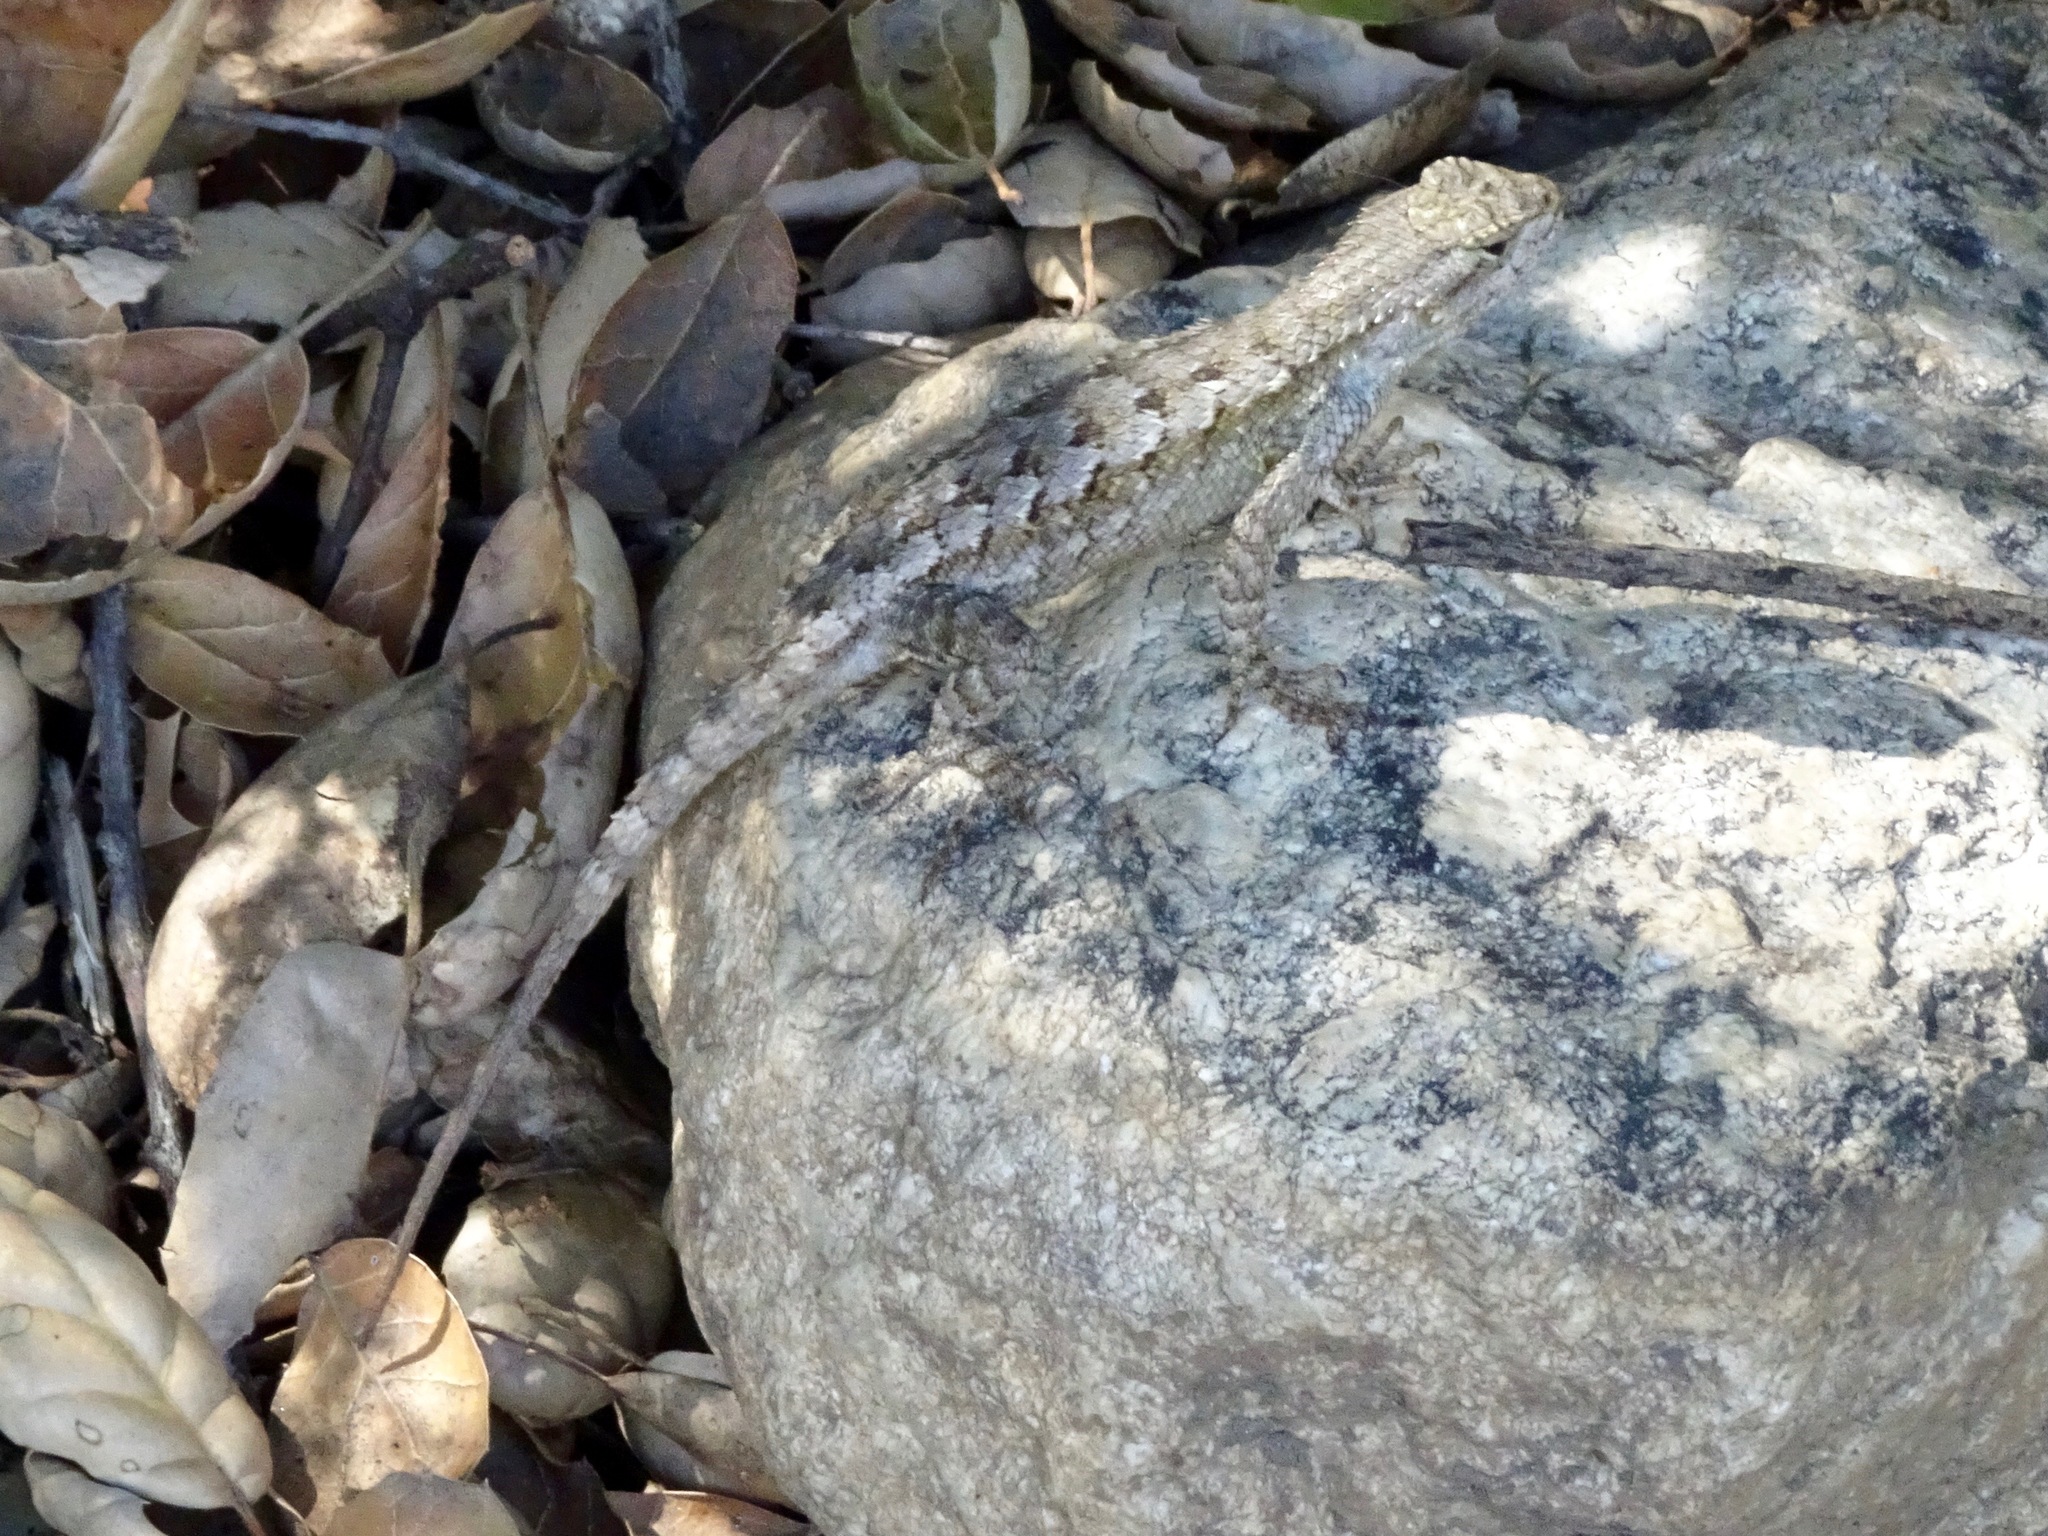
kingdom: Animalia
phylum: Chordata
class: Squamata
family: Phrynosomatidae
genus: Sceloporus
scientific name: Sceloporus occidentalis
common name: Western fence lizard
